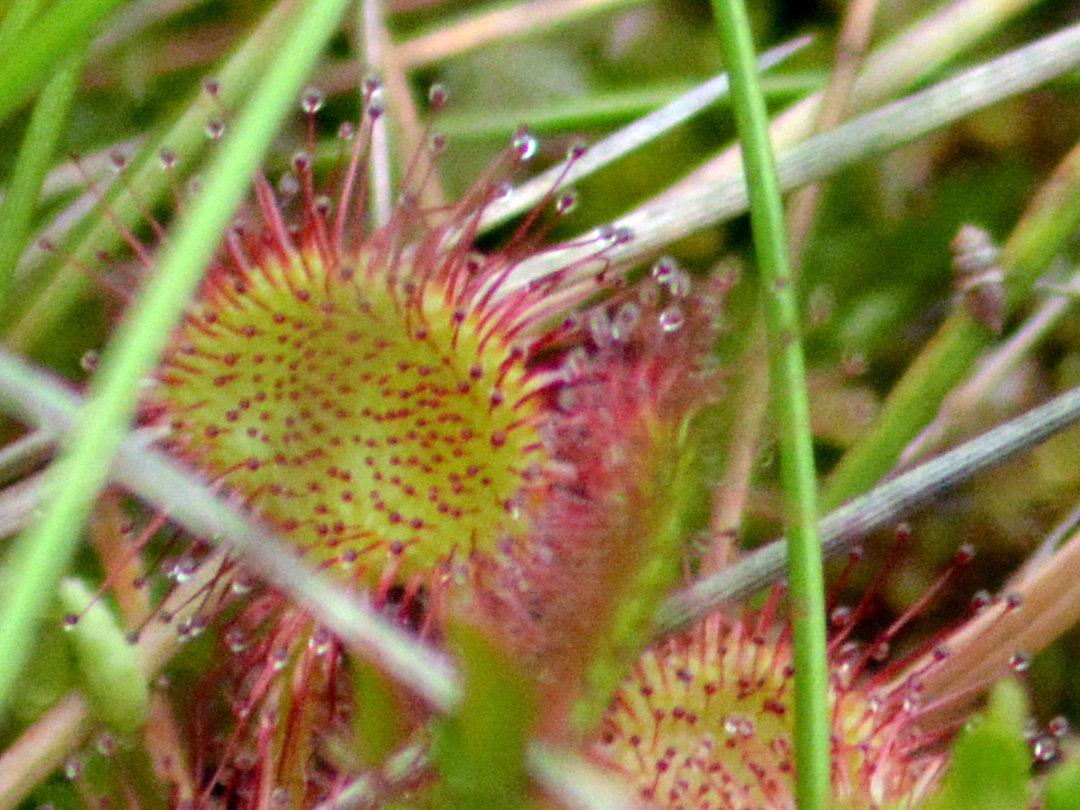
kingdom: Plantae
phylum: Tracheophyta
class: Magnoliopsida
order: Caryophyllales
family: Droseraceae
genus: Drosera
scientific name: Drosera rotundifolia
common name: Round-leaved sundew
